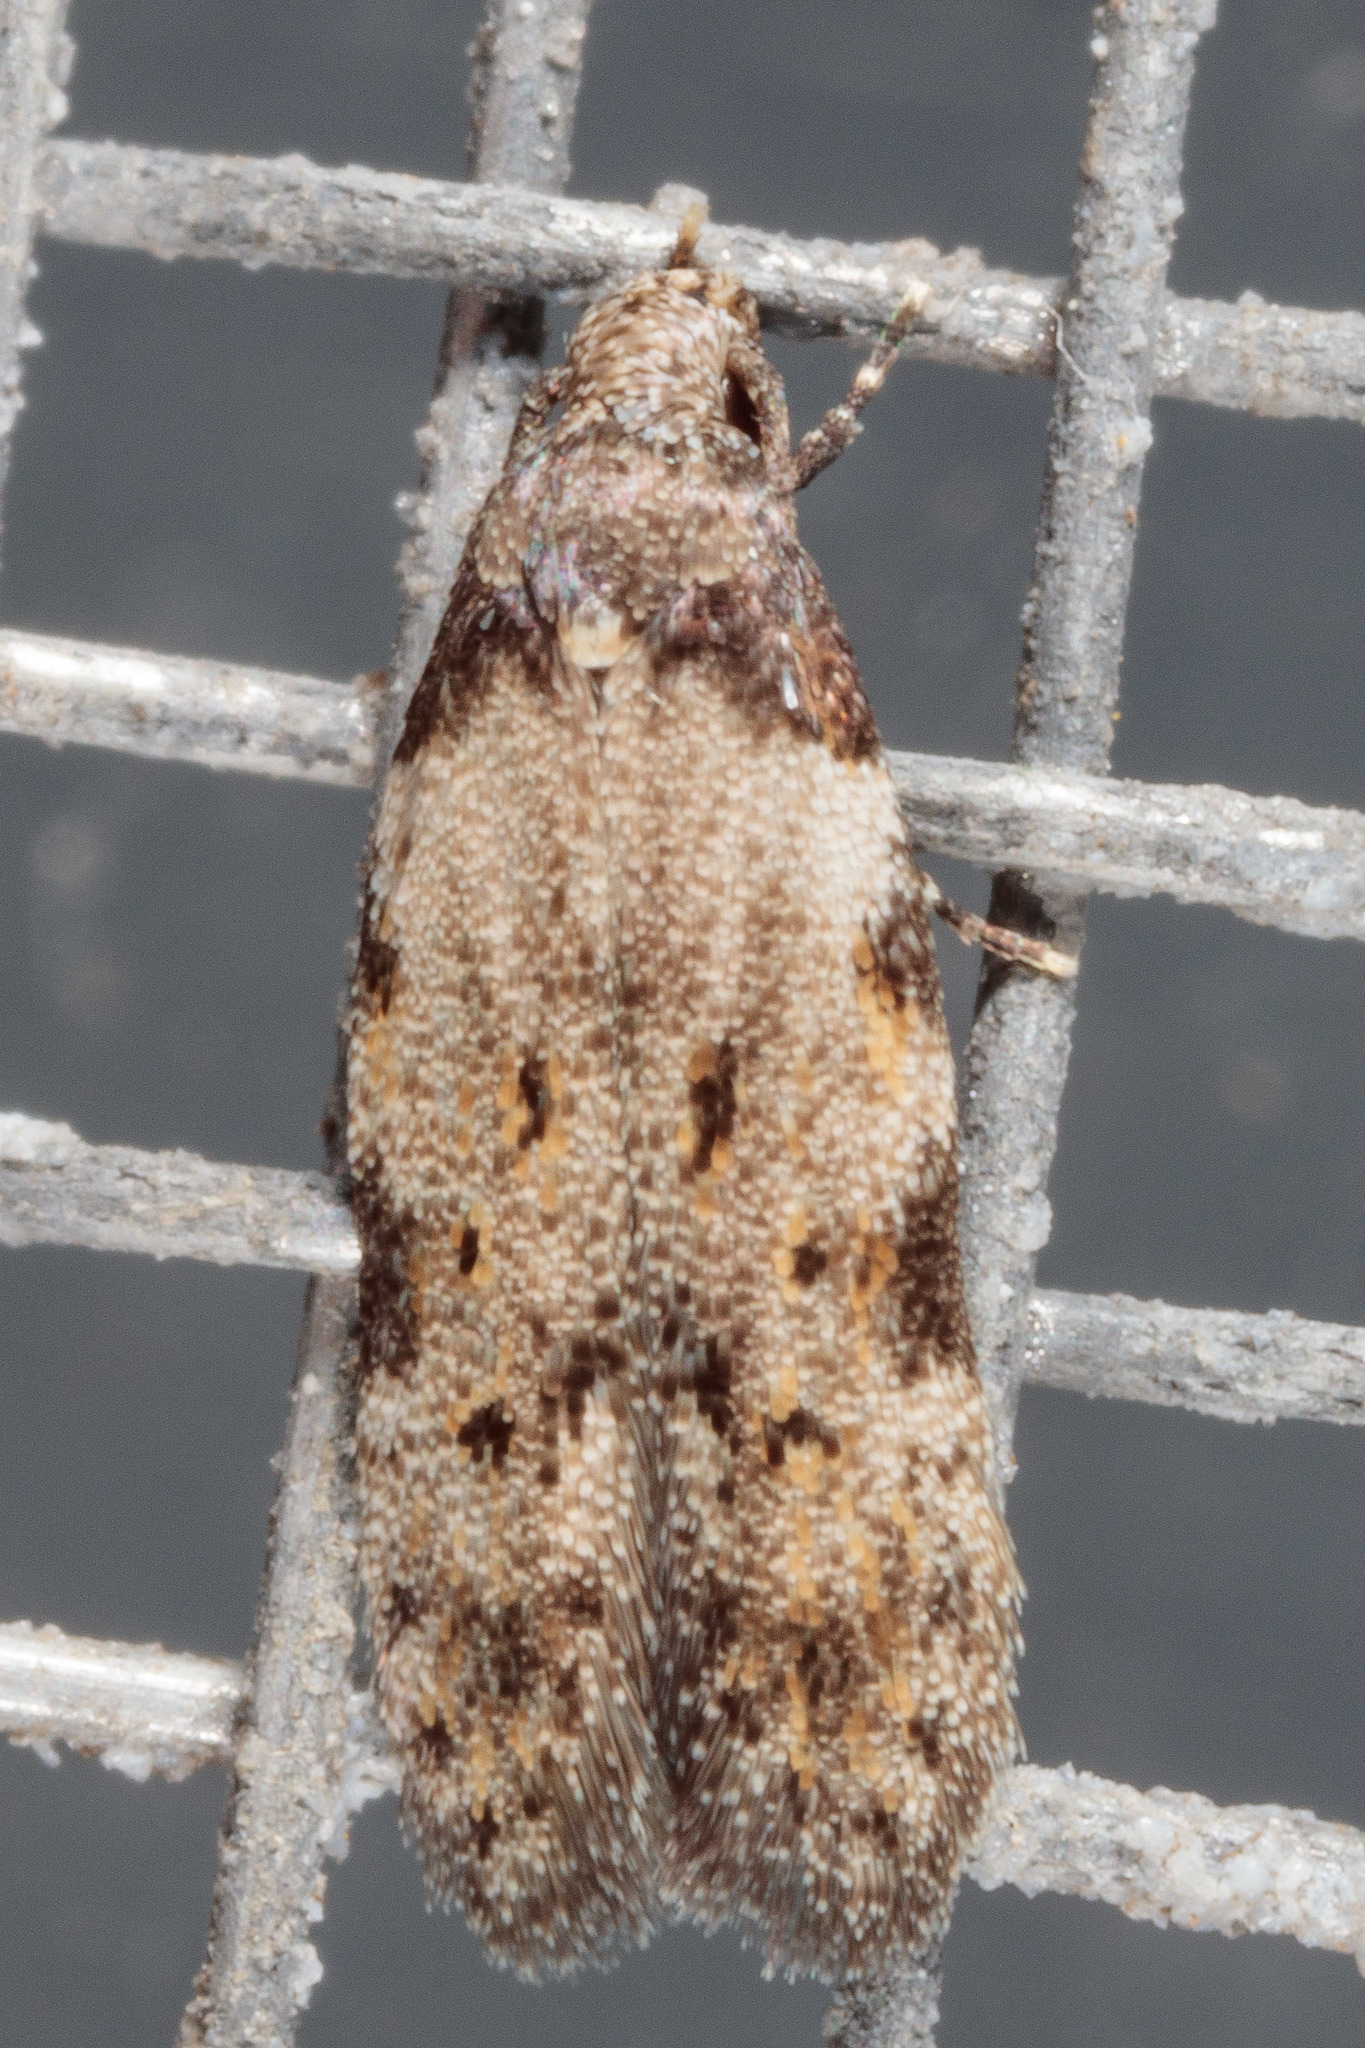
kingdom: Animalia
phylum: Arthropoda
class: Insecta
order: Lepidoptera
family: Autostichidae
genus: Taygete
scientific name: Taygete attributella
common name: Triangle-marked twirler moth
